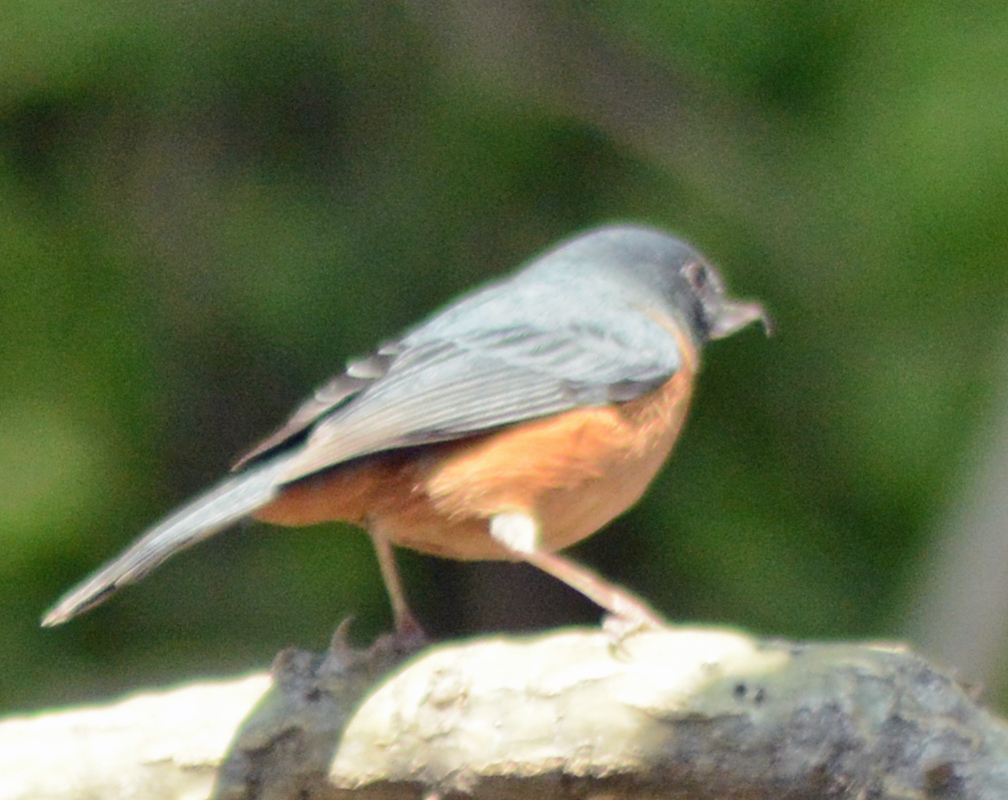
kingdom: Animalia
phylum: Chordata
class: Aves
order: Passeriformes
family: Thraupidae
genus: Diglossa
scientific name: Diglossa baritula
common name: Cinnamon-bellied flowerpiercer
